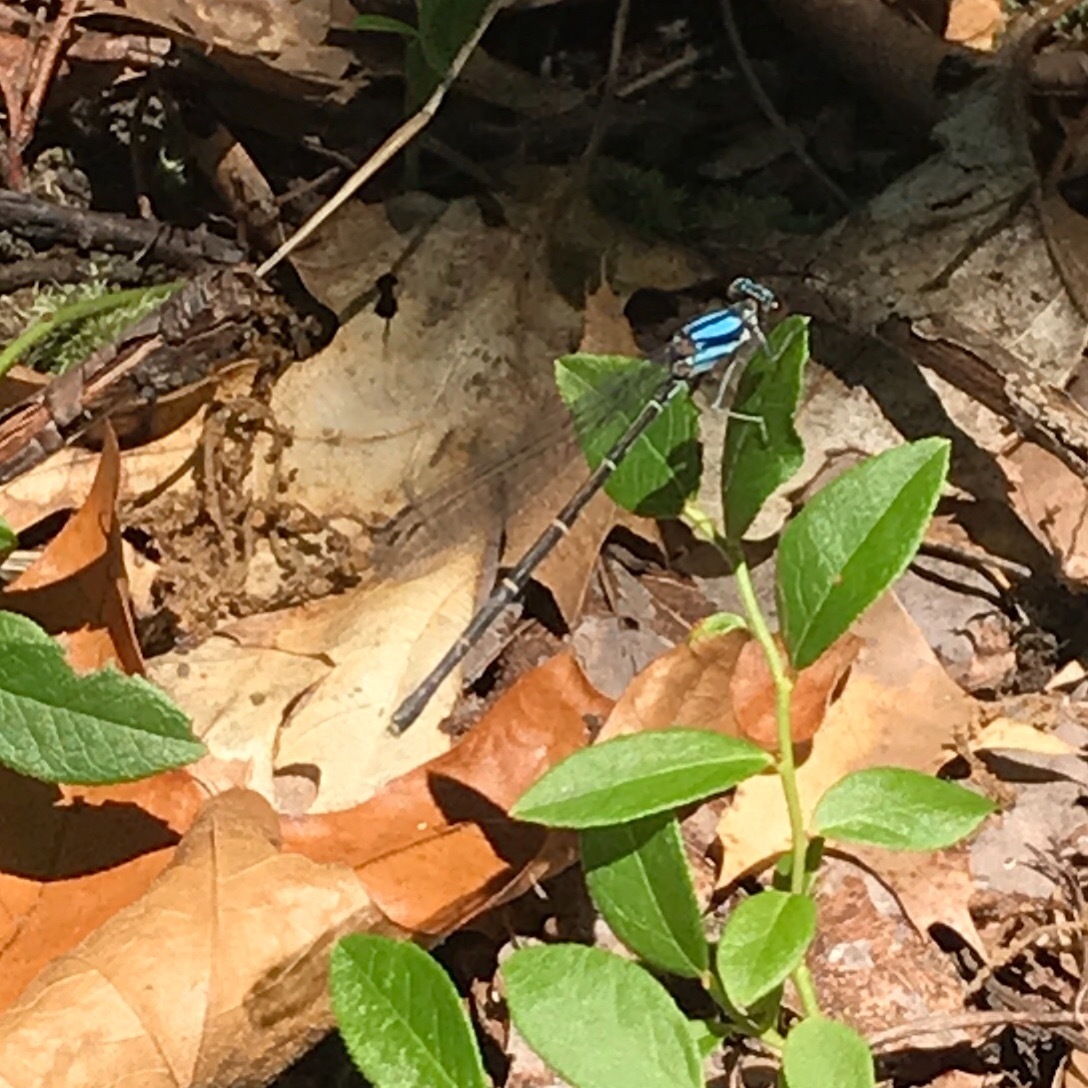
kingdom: Animalia
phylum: Arthropoda
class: Insecta
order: Odonata
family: Coenagrionidae
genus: Argia
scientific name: Argia tibialis
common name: Blue-tipped dancer
